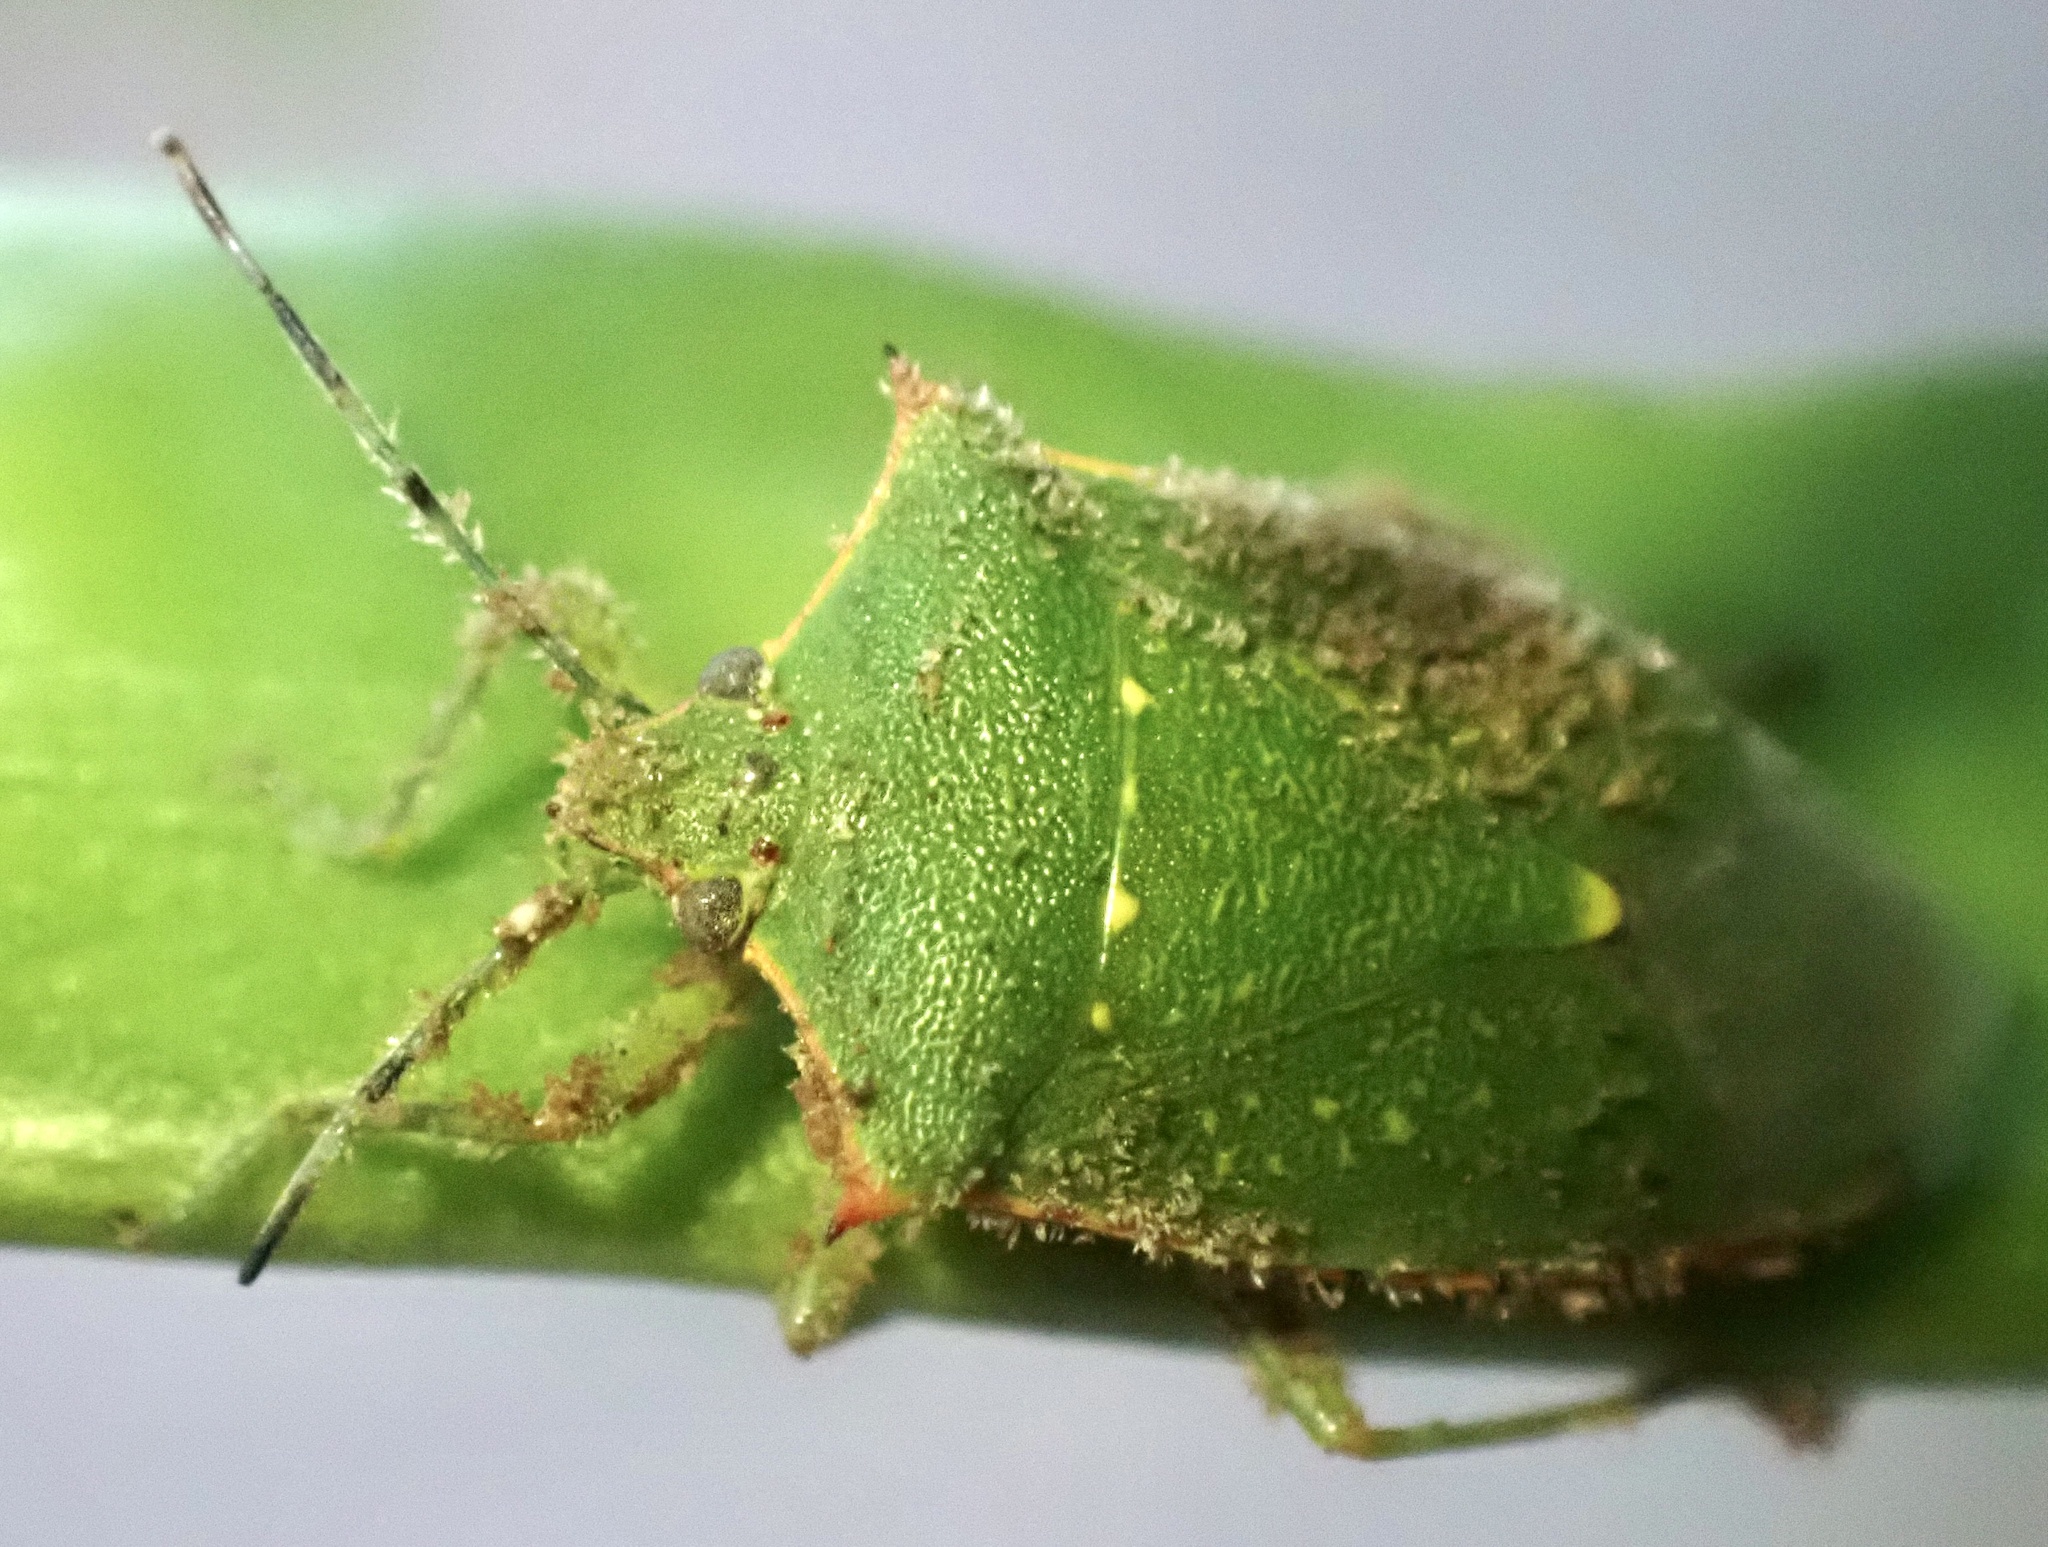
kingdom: Animalia
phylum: Arthropoda
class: Insecta
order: Hemiptera
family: Pentatomidae
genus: Chinavia
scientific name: Chinavia
